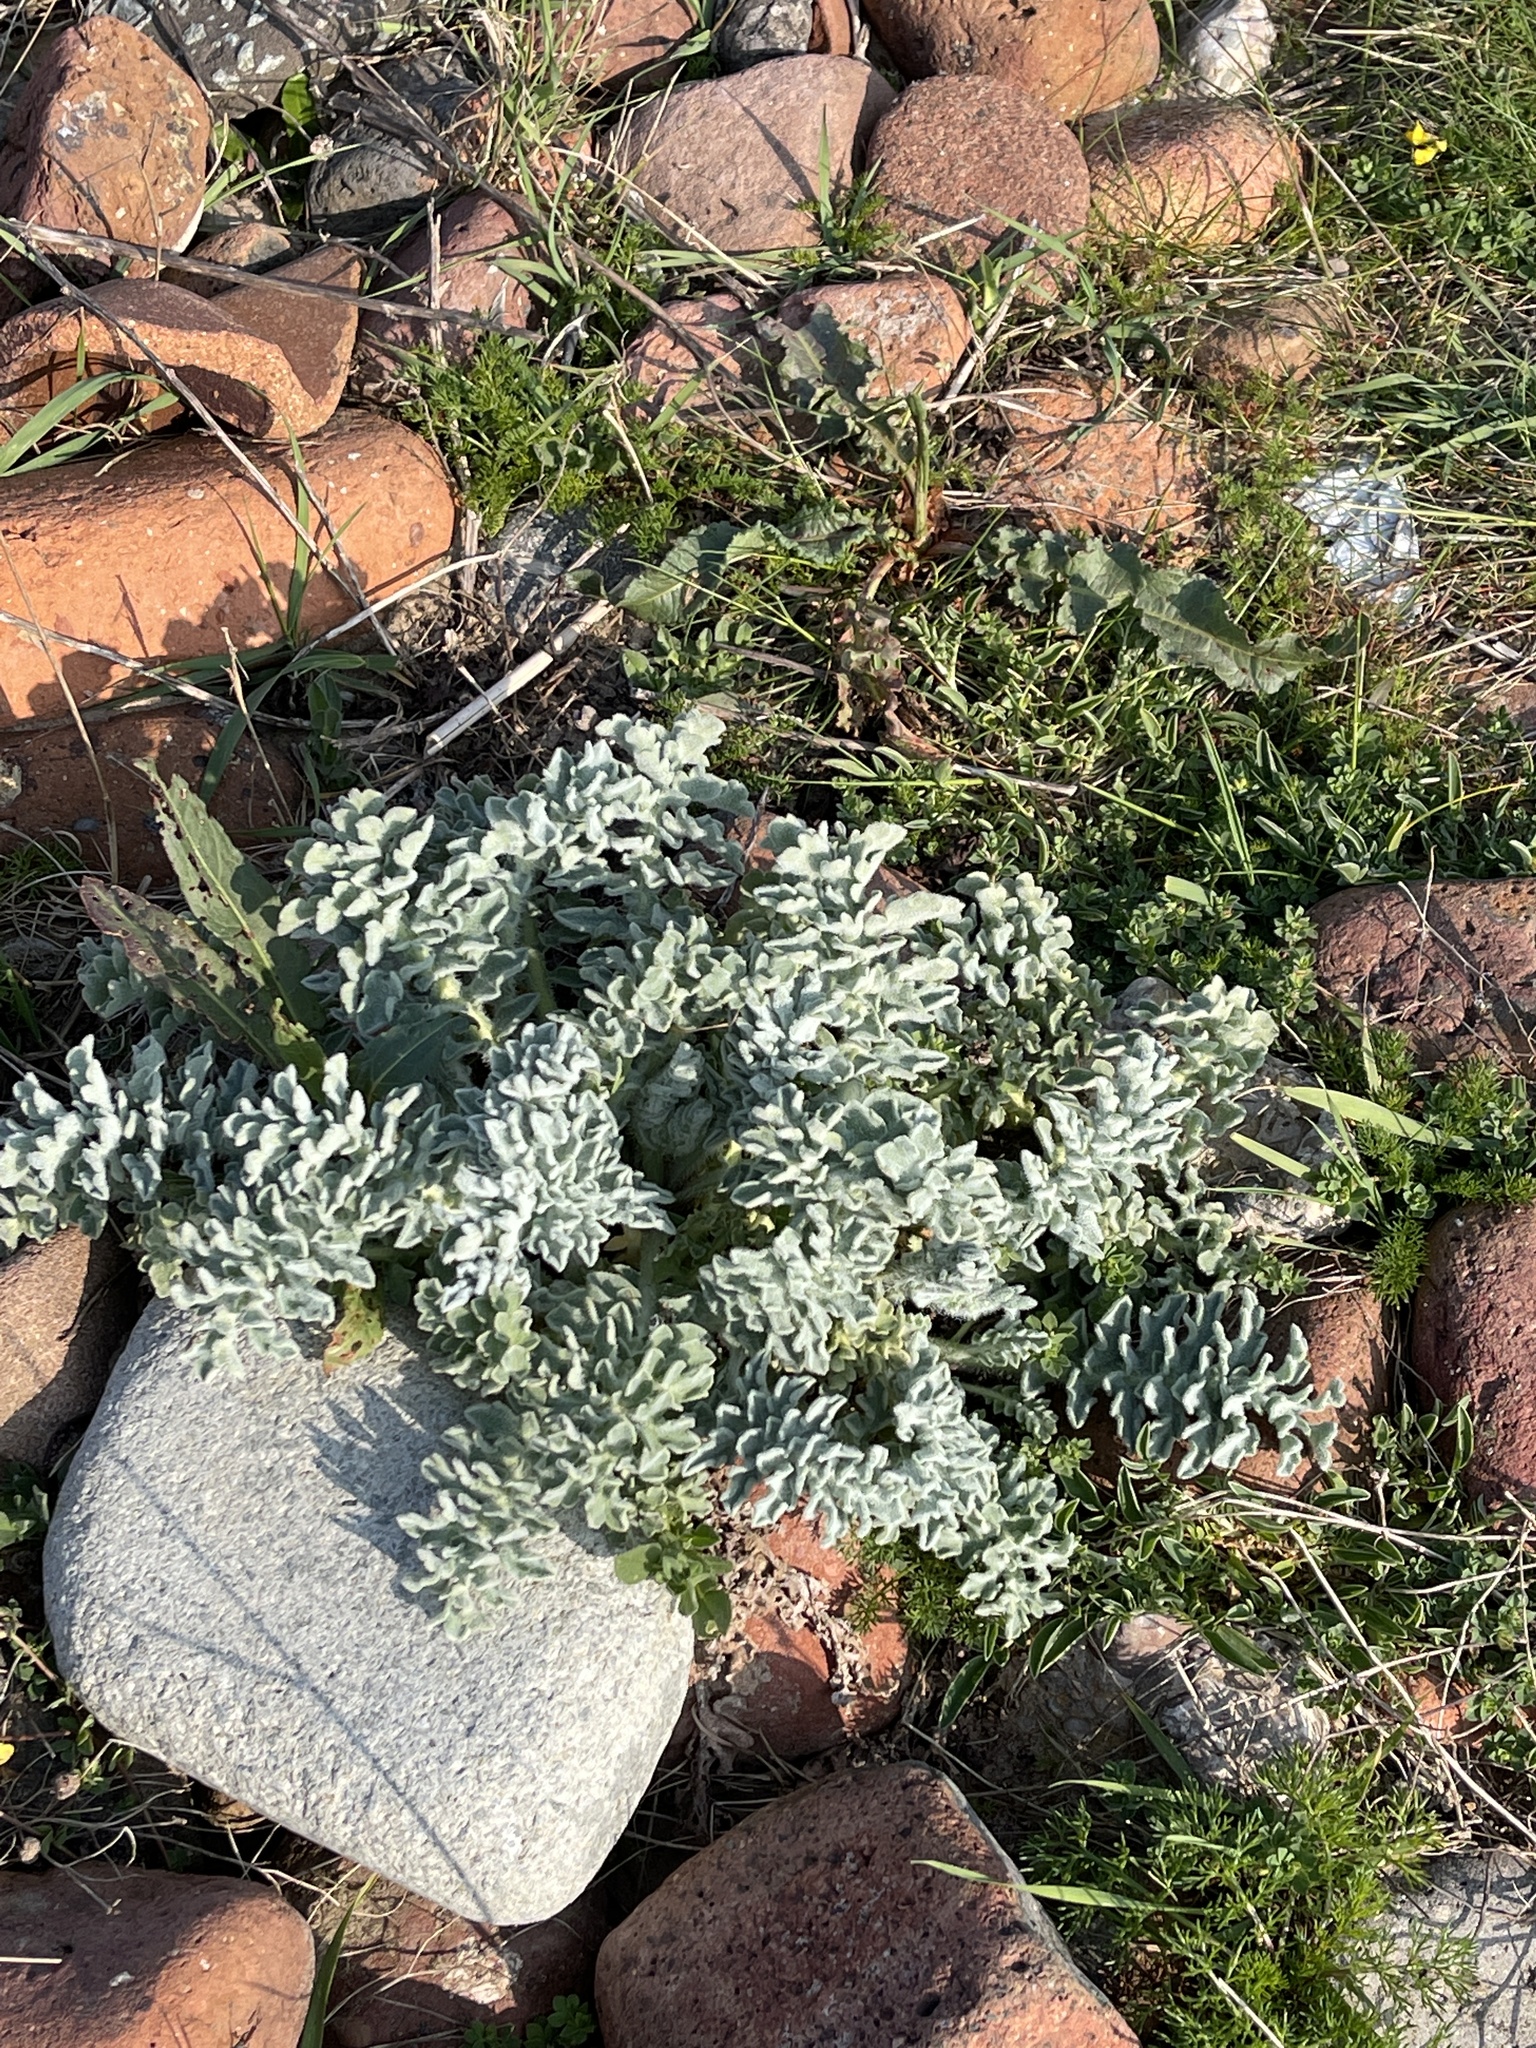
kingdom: Plantae
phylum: Tracheophyta
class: Magnoliopsida
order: Ranunculales
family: Papaveraceae
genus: Glaucium
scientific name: Glaucium flavum
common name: Yellow horned-poppy
